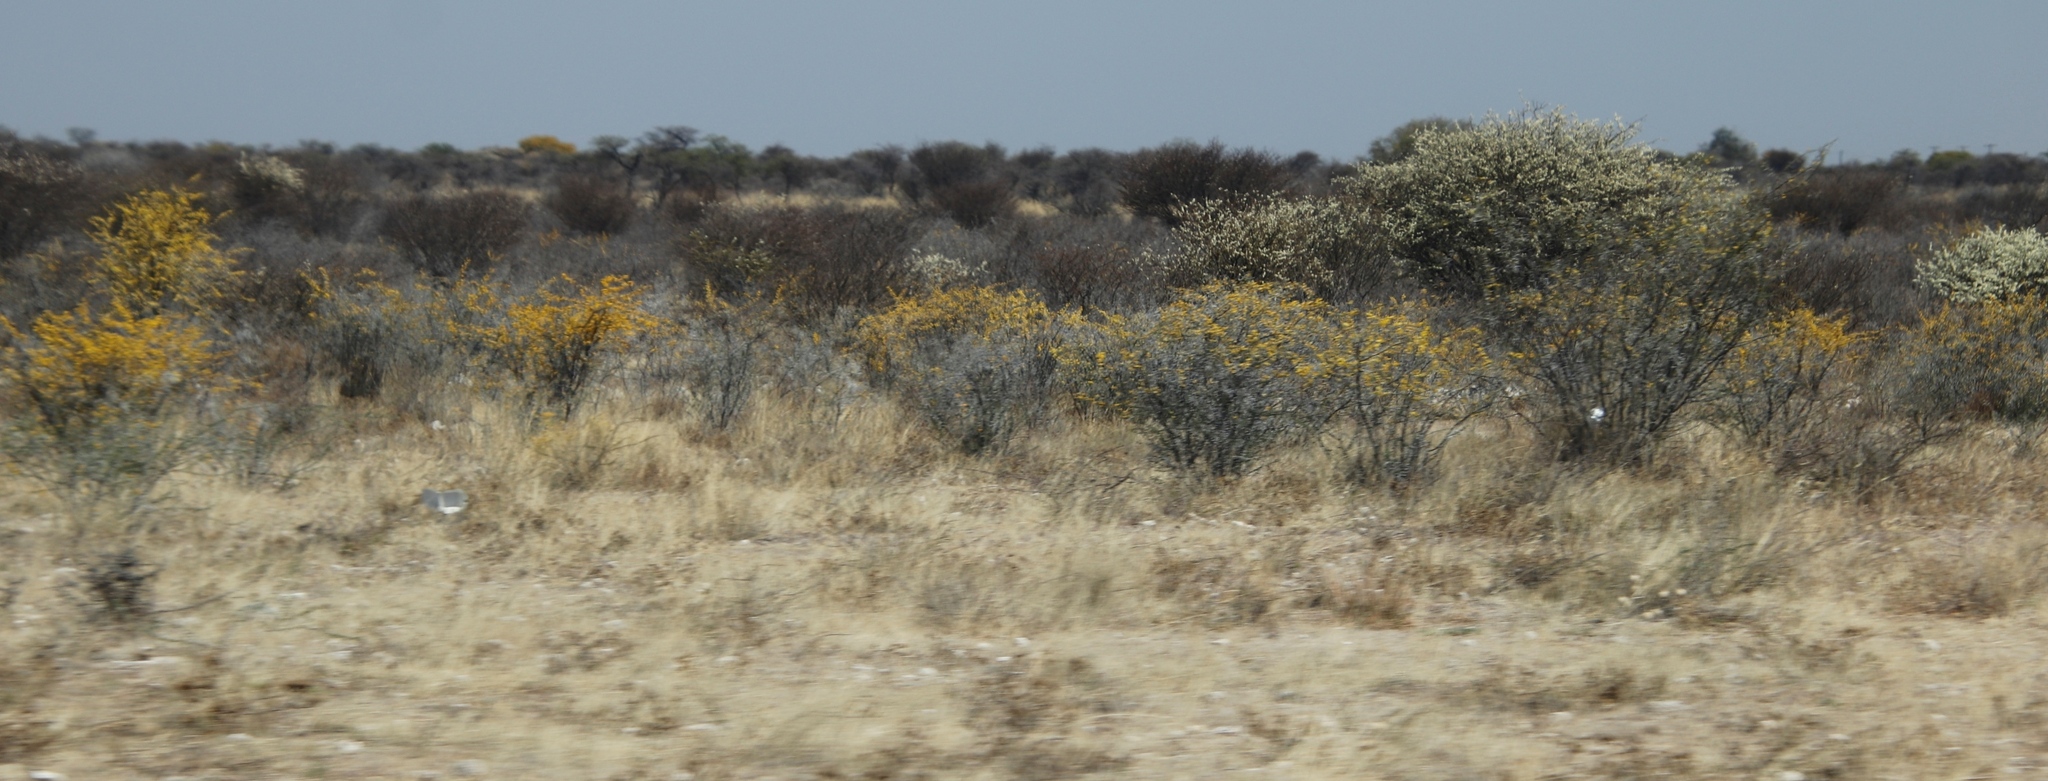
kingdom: Plantae
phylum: Tracheophyta
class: Magnoliopsida
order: Lamiales
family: Bignoniaceae
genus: Rhigozum
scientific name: Rhigozum brevispinosum
